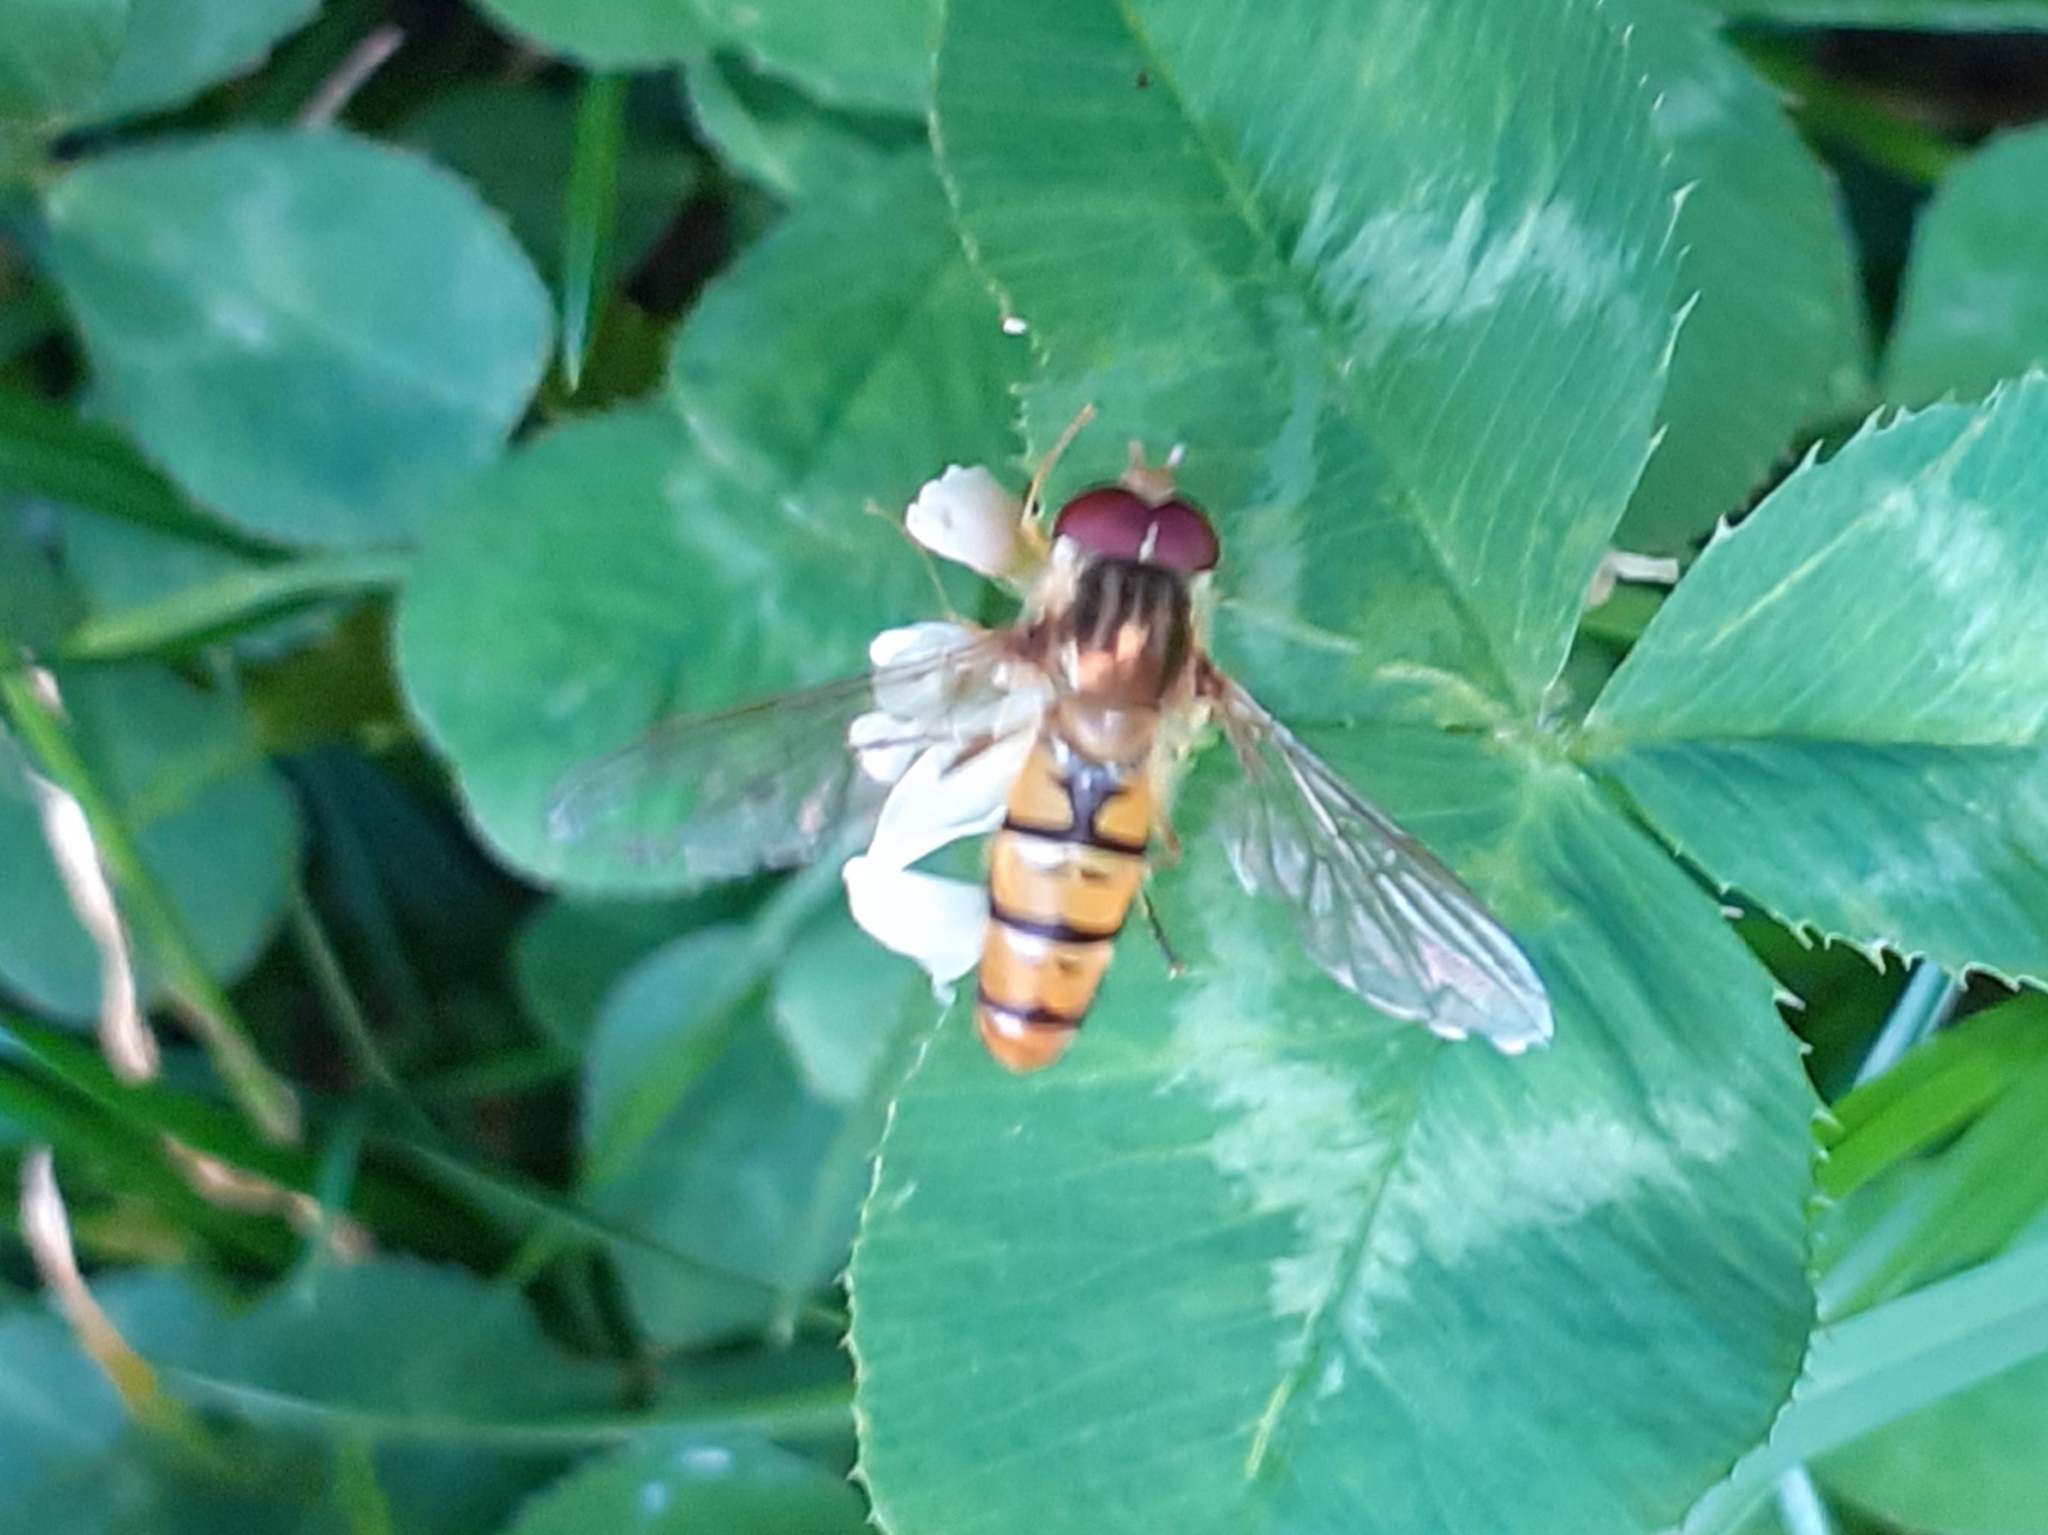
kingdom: Animalia
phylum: Arthropoda
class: Insecta
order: Diptera
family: Syrphidae
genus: Episyrphus
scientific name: Episyrphus balteatus
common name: Marmalade hoverfly
